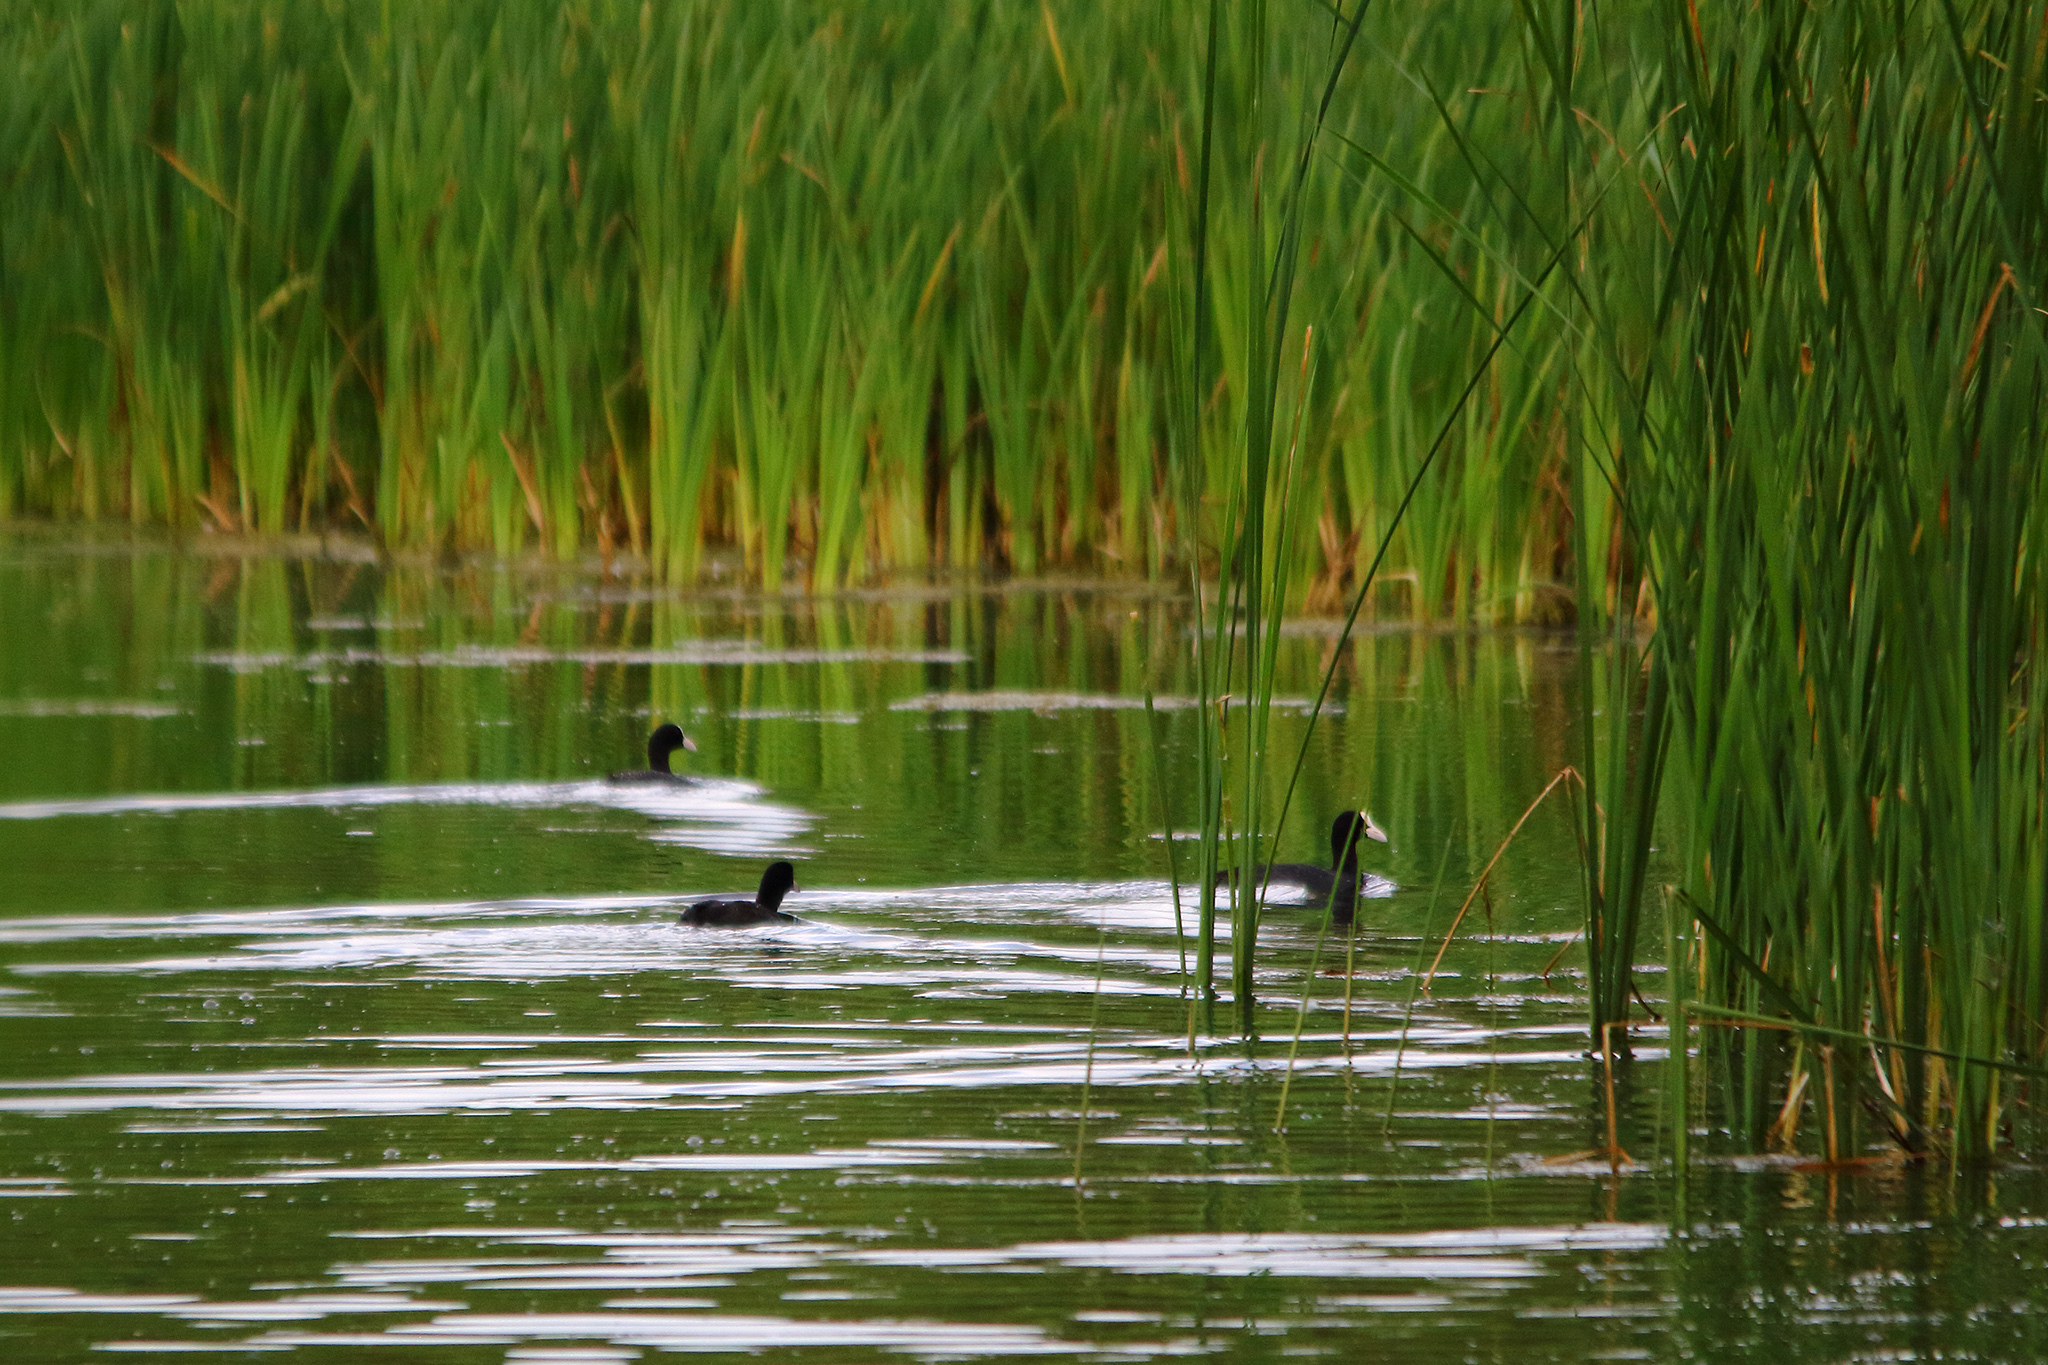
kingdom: Animalia
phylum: Chordata
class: Aves
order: Gruiformes
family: Rallidae
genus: Fulica
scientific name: Fulica atra
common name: Eurasian coot
